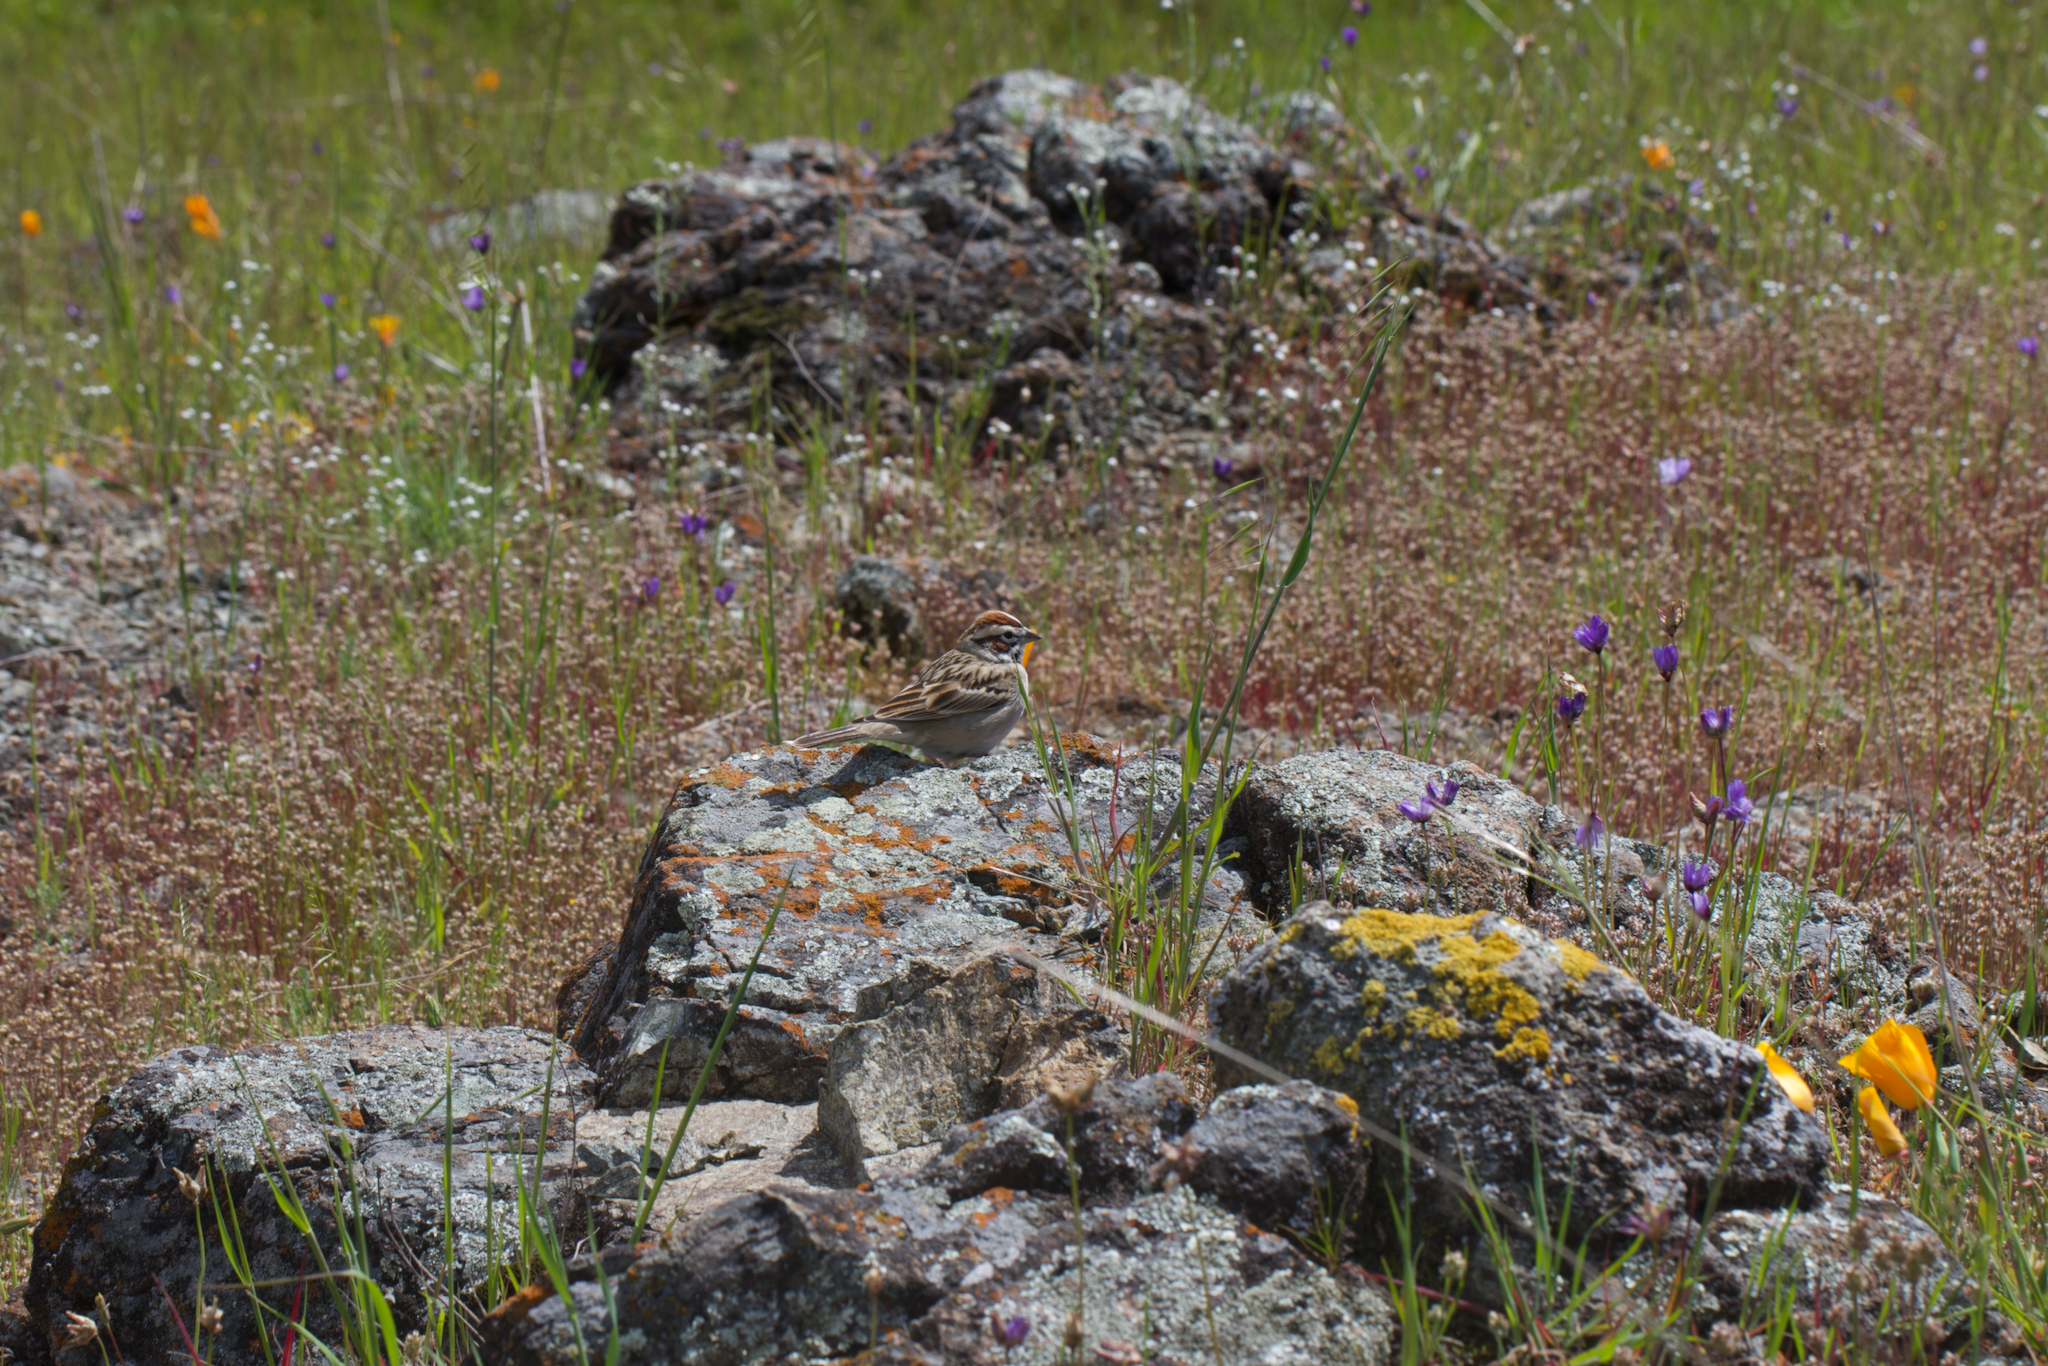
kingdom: Animalia
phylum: Chordata
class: Aves
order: Passeriformes
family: Passerellidae
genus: Chondestes
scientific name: Chondestes grammacus
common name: Lark sparrow
